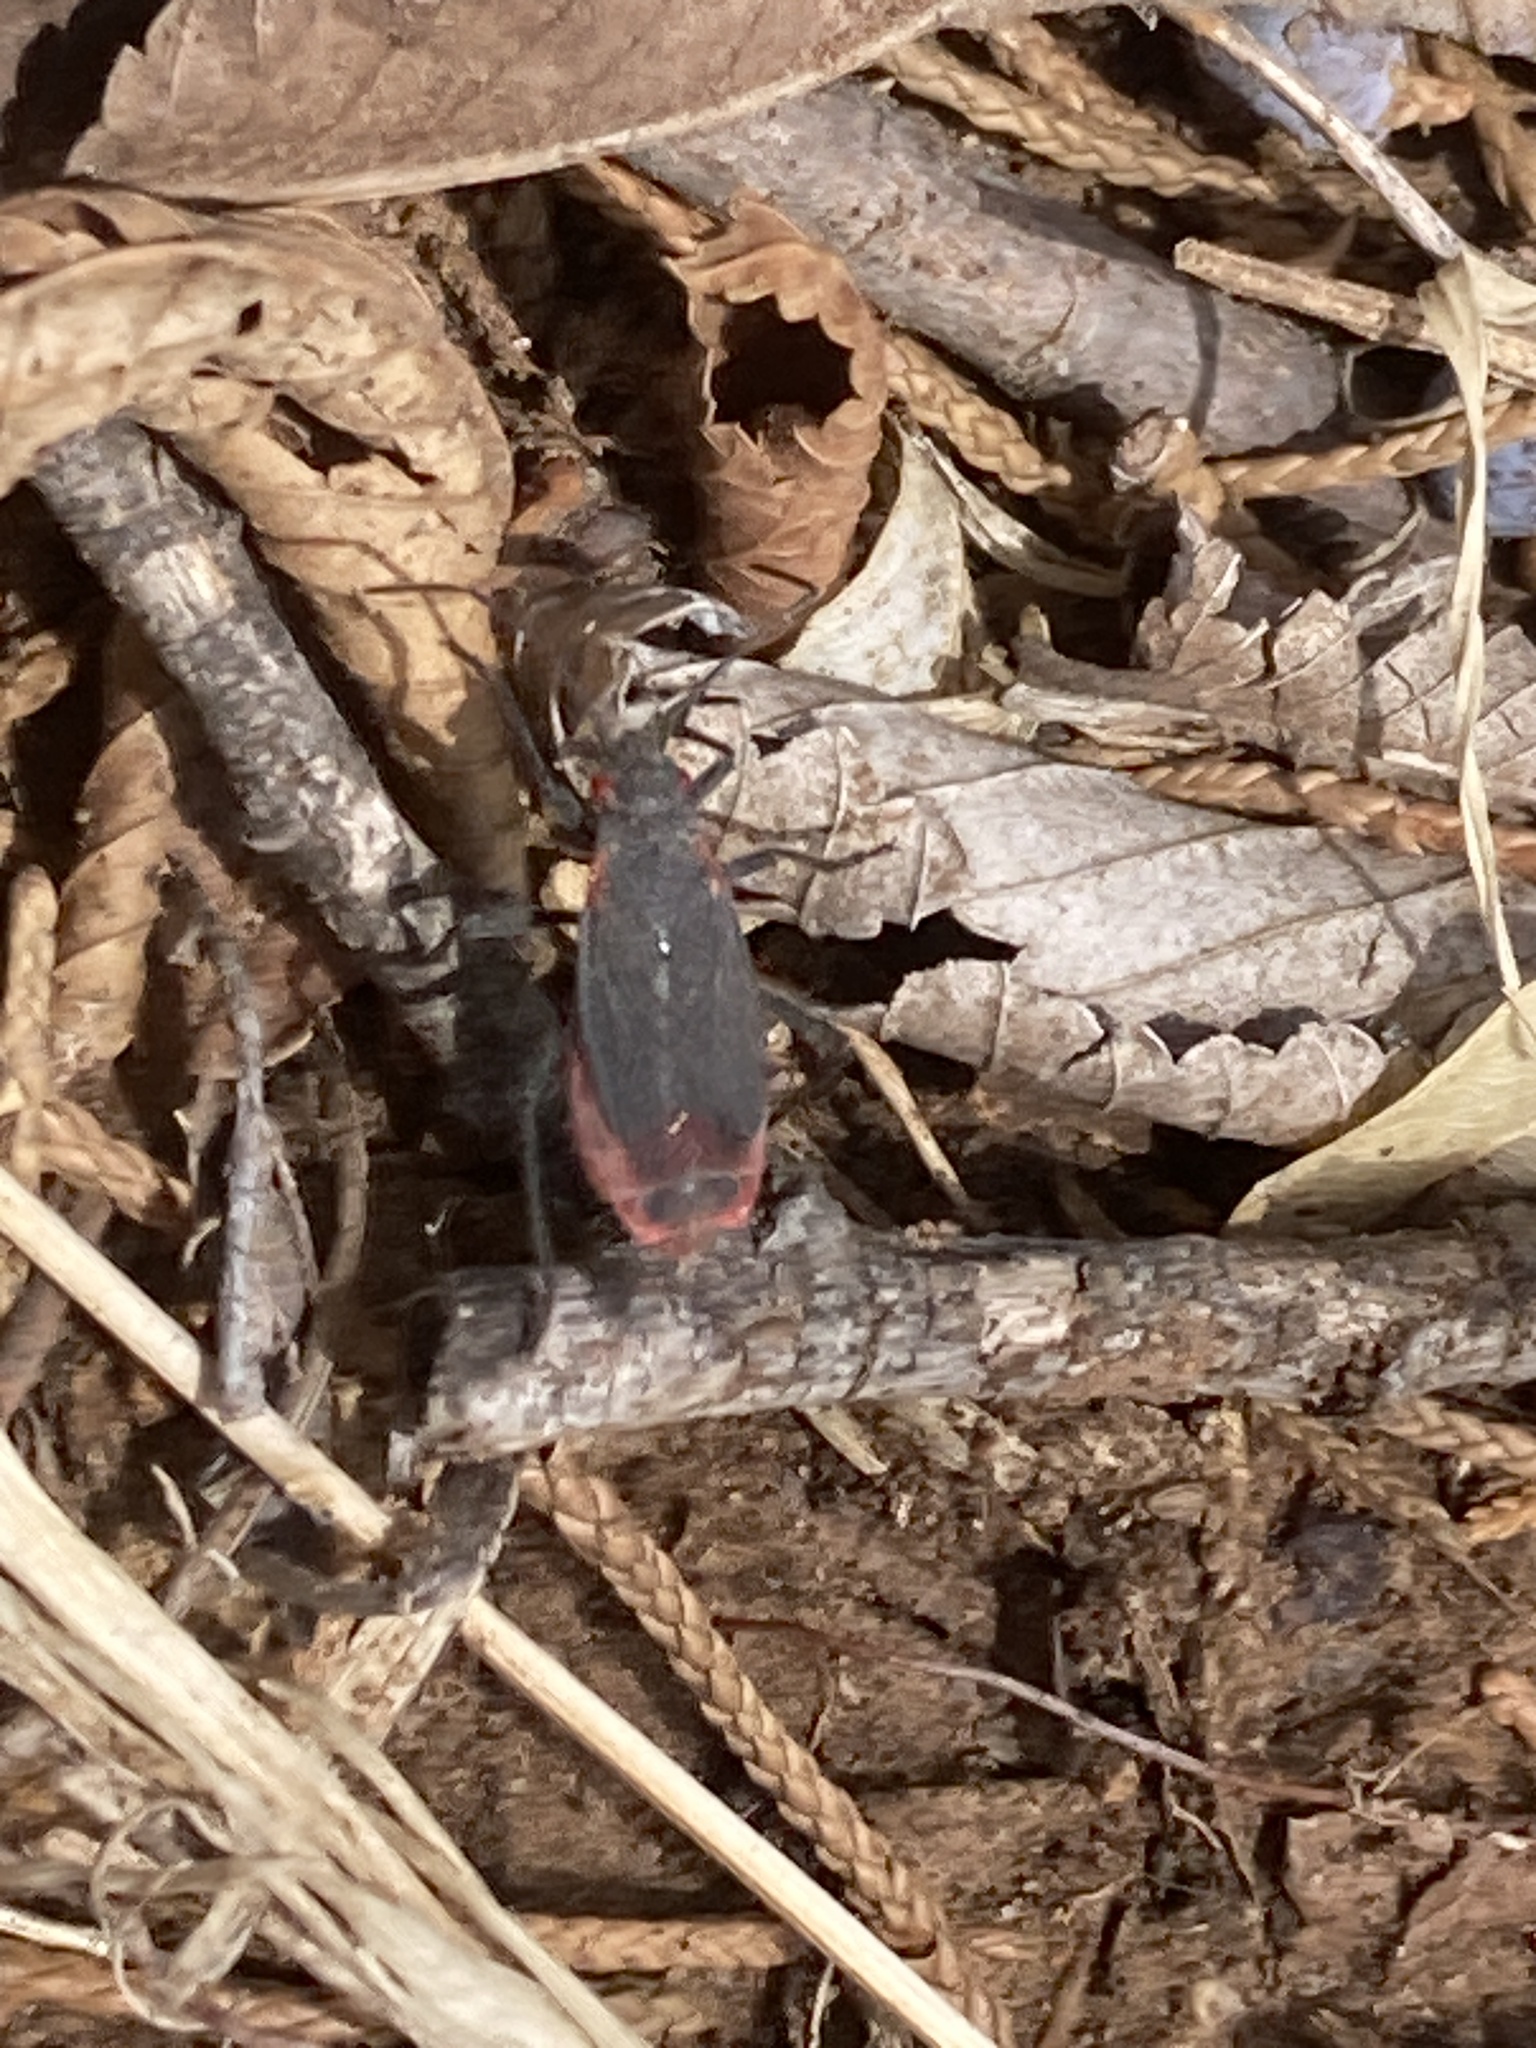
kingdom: Animalia
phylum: Arthropoda
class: Insecta
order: Hemiptera
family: Rhopalidae
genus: Jadera
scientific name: Jadera haematoloma
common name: Red-shouldered bug
